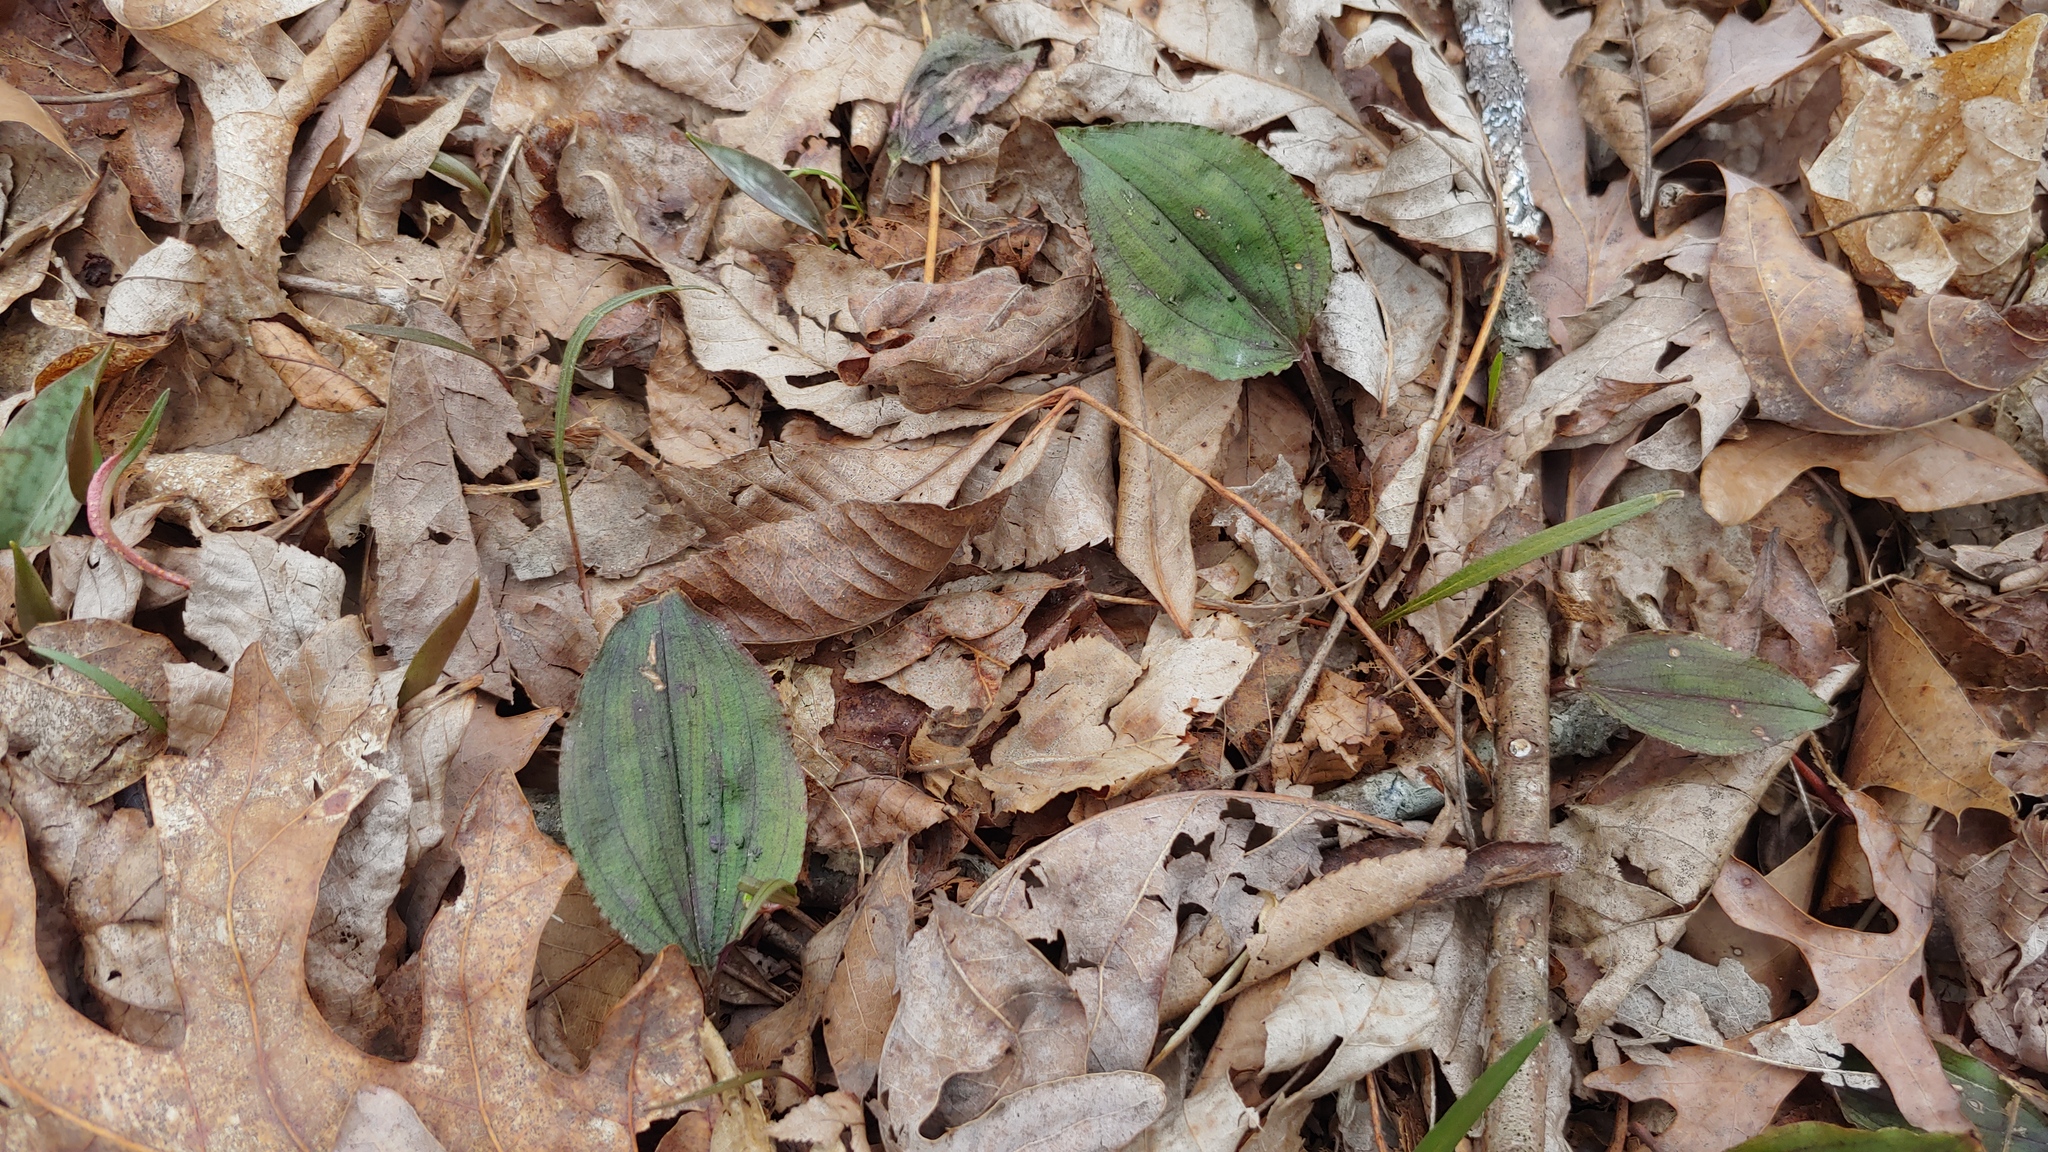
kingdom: Plantae
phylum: Tracheophyta
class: Liliopsida
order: Asparagales
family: Orchidaceae
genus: Tipularia
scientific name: Tipularia discolor
